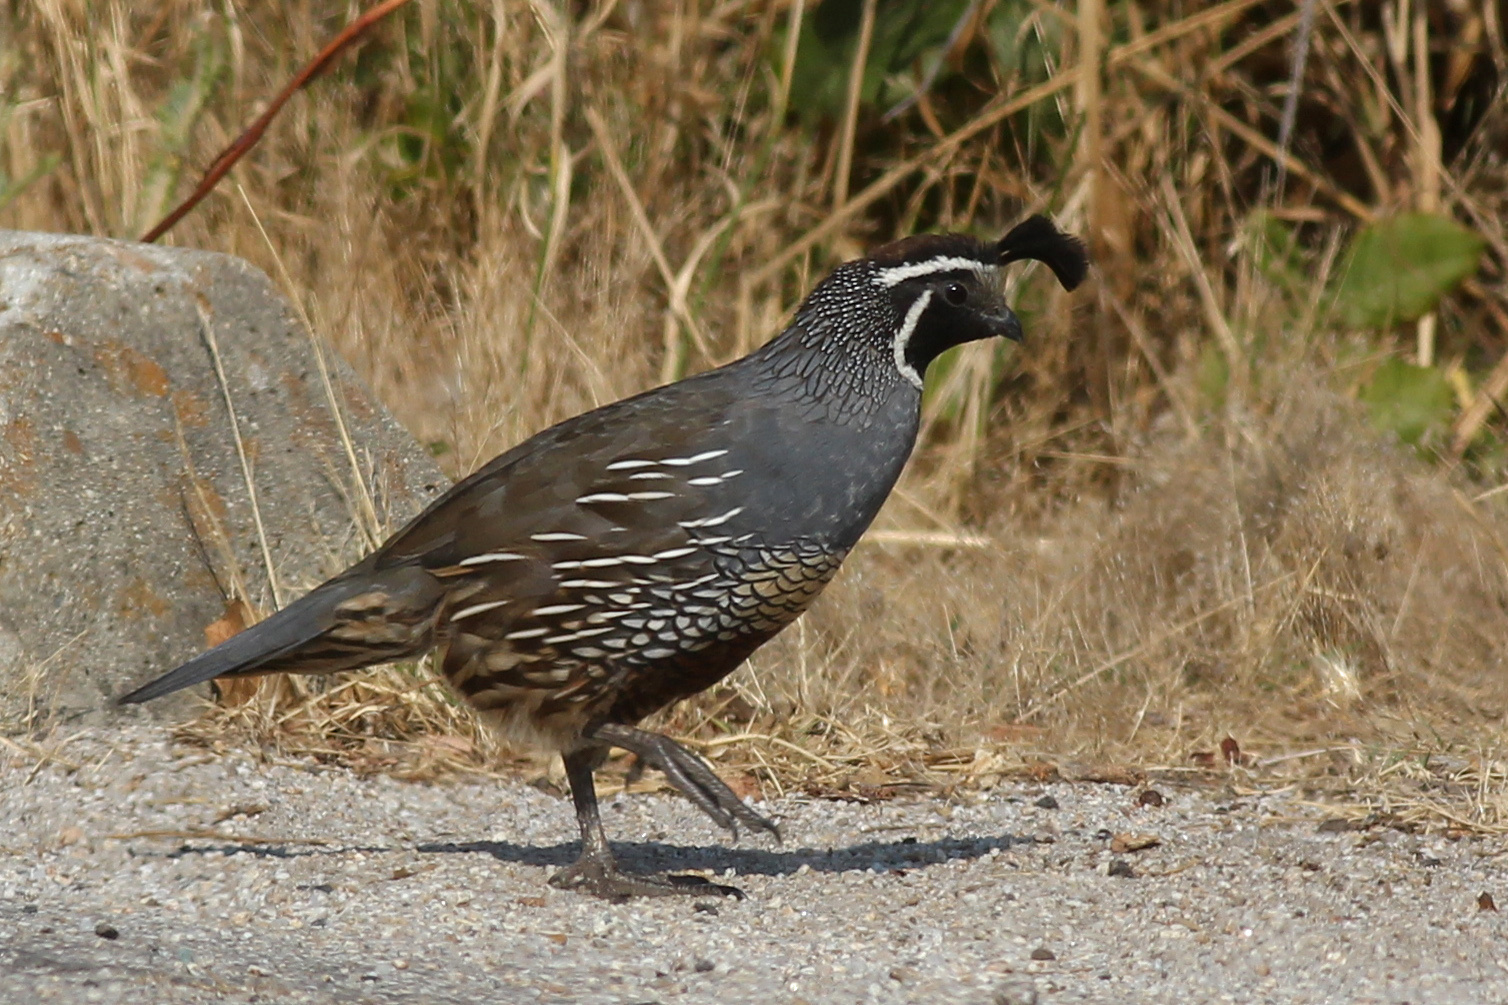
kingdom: Animalia
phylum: Chordata
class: Aves
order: Galliformes
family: Odontophoridae
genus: Callipepla
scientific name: Callipepla californica
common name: California quail
